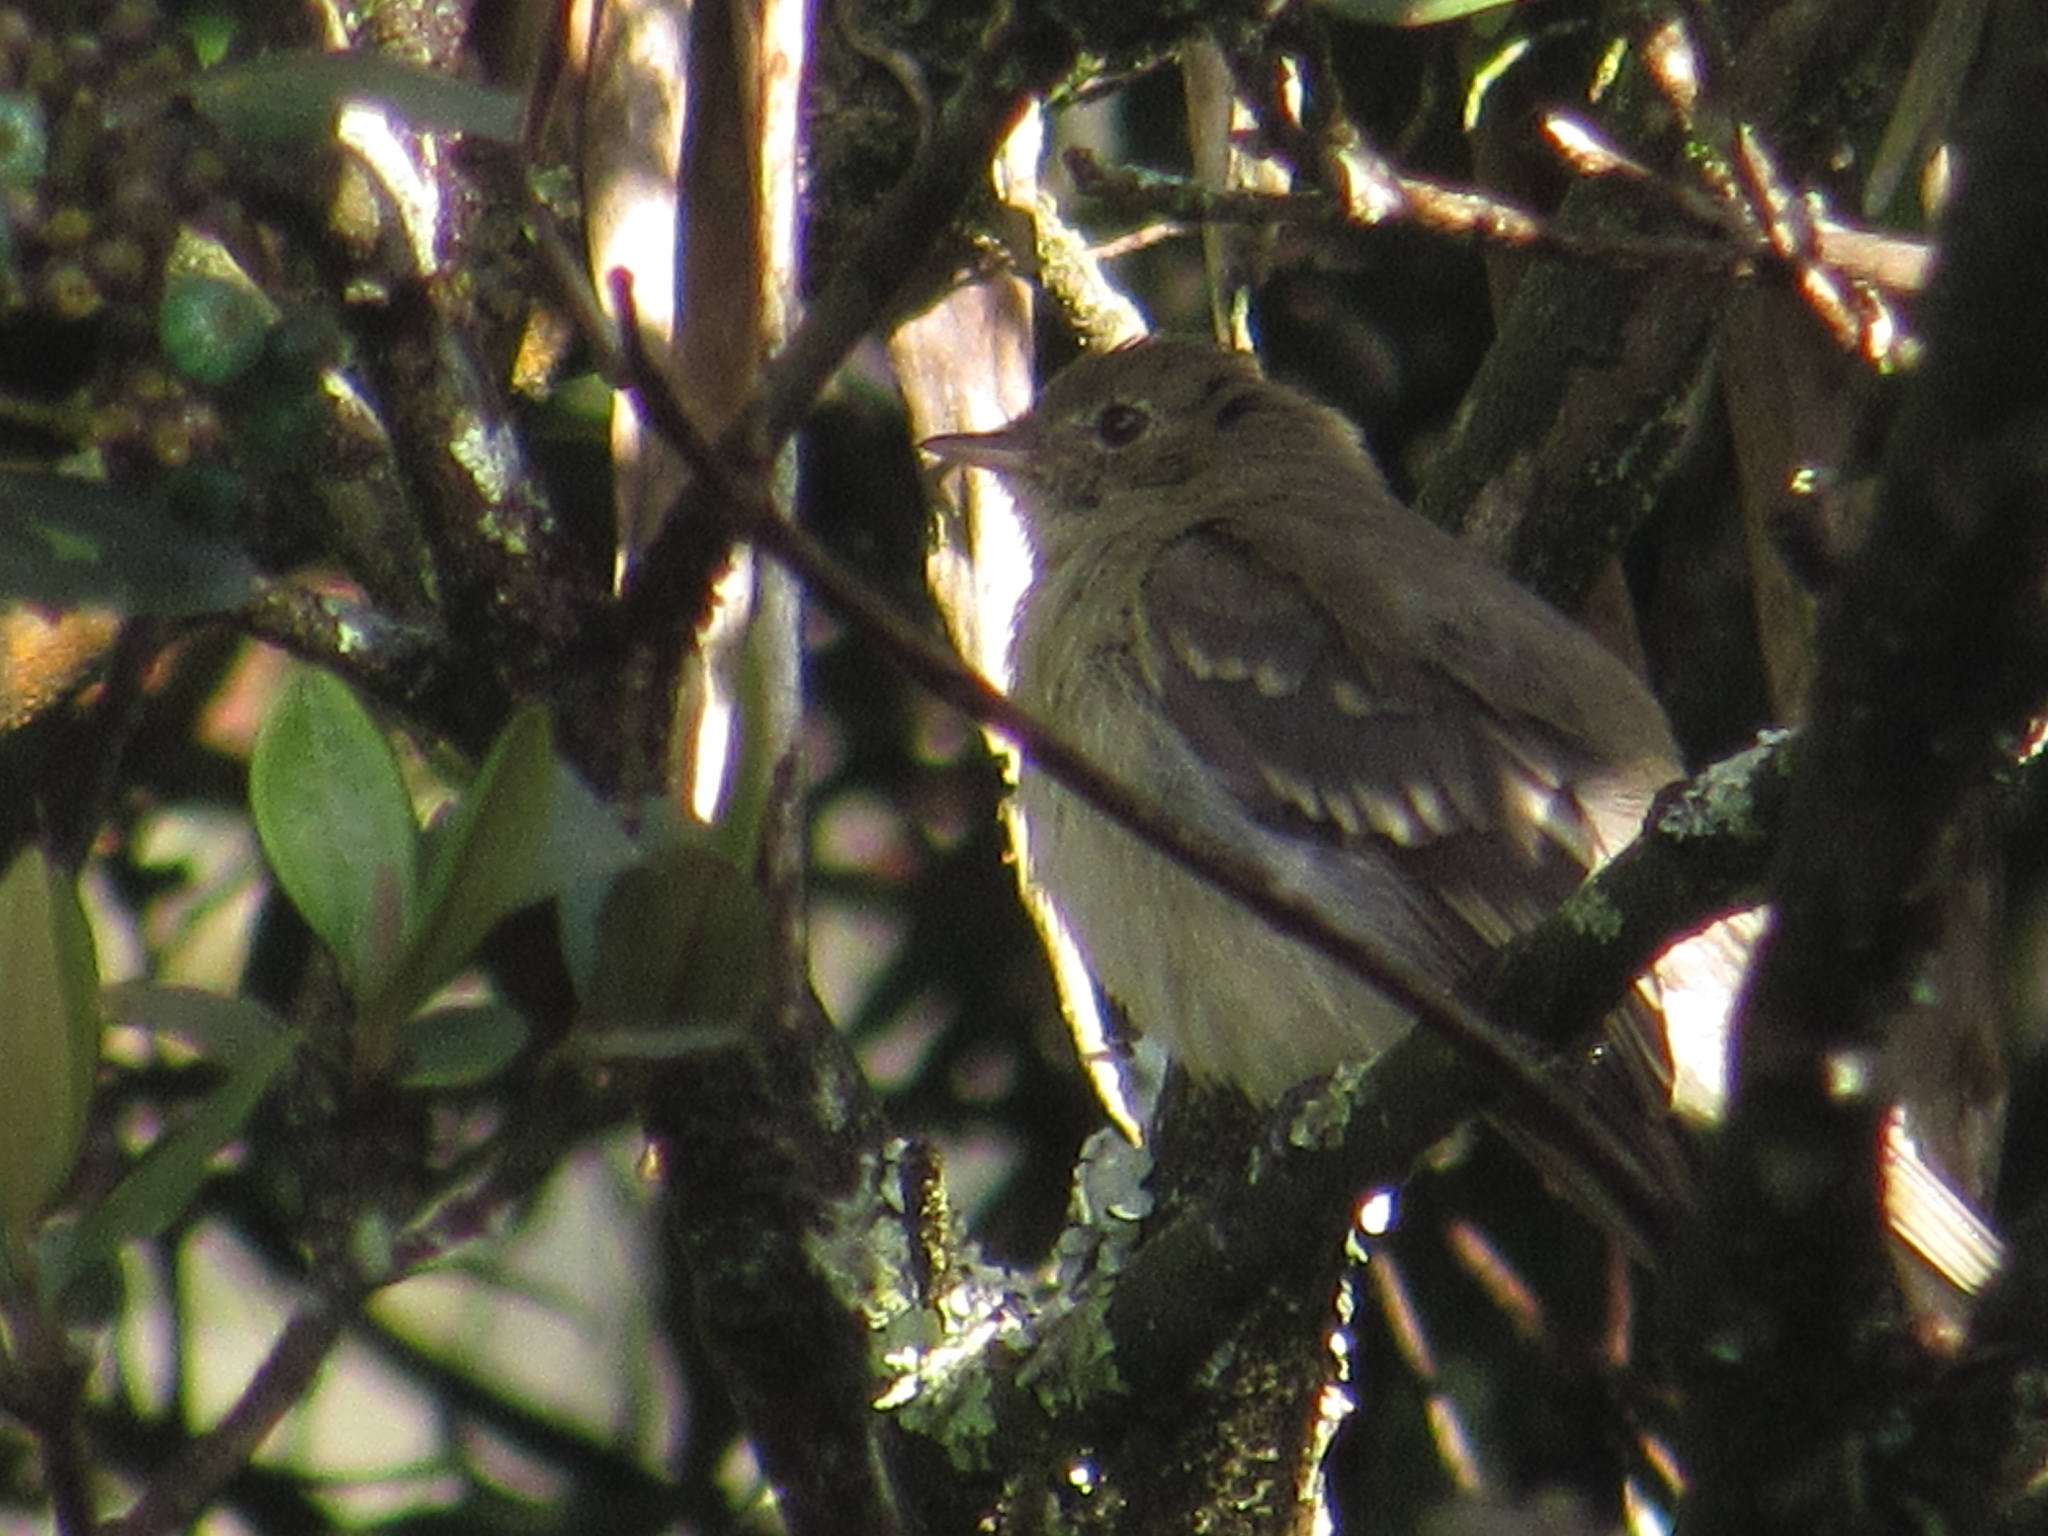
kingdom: Animalia
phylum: Chordata
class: Aves
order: Passeriformes
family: Tyrannidae
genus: Elaenia
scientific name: Elaenia frantzii
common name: Mountain elaenia
